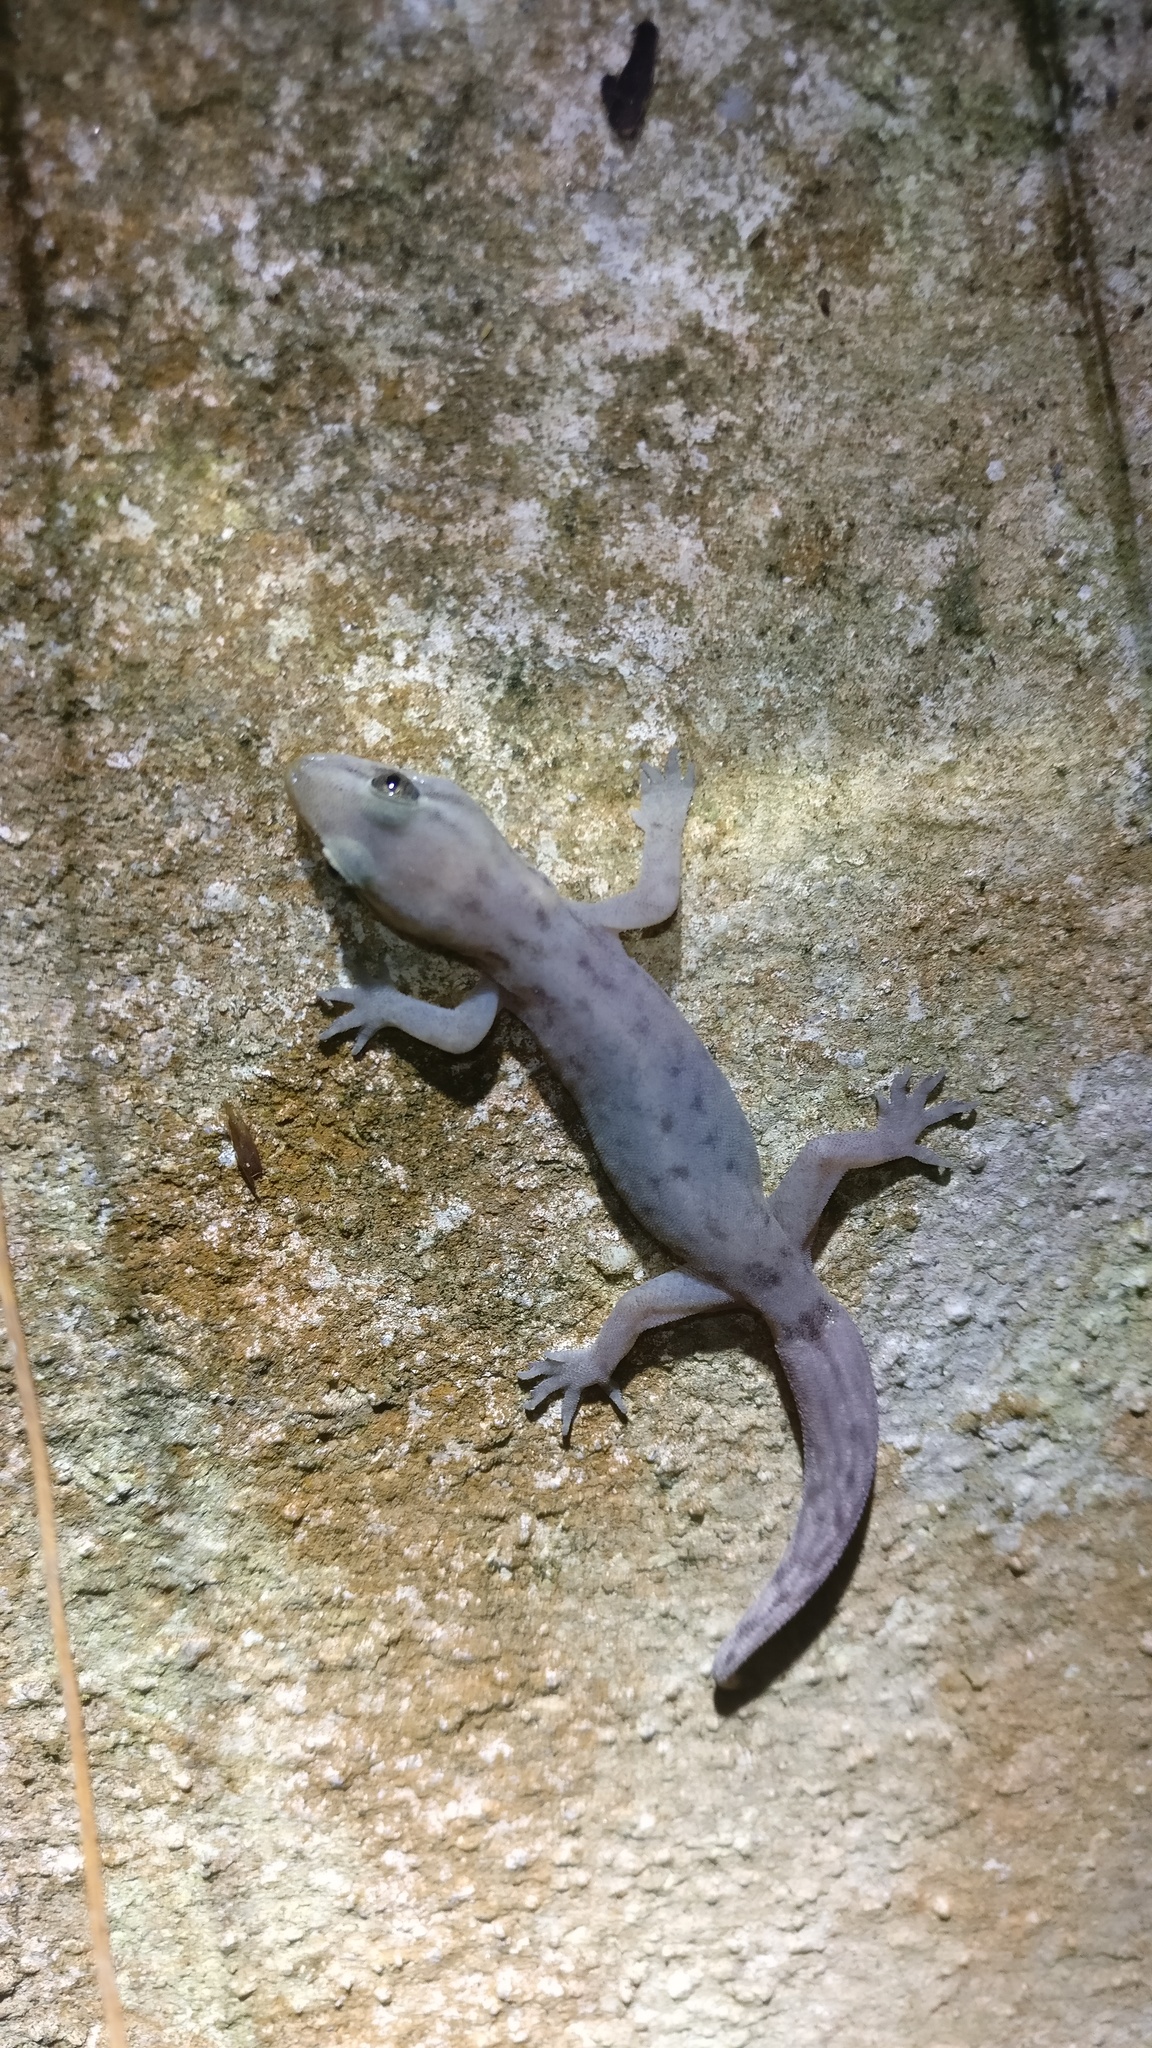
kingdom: Animalia
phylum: Chordata
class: Squamata
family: Gekkonidae
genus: Dravidogecko
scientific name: Dravidogecko tholpalli
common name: Kodaikanal dravidogecko
